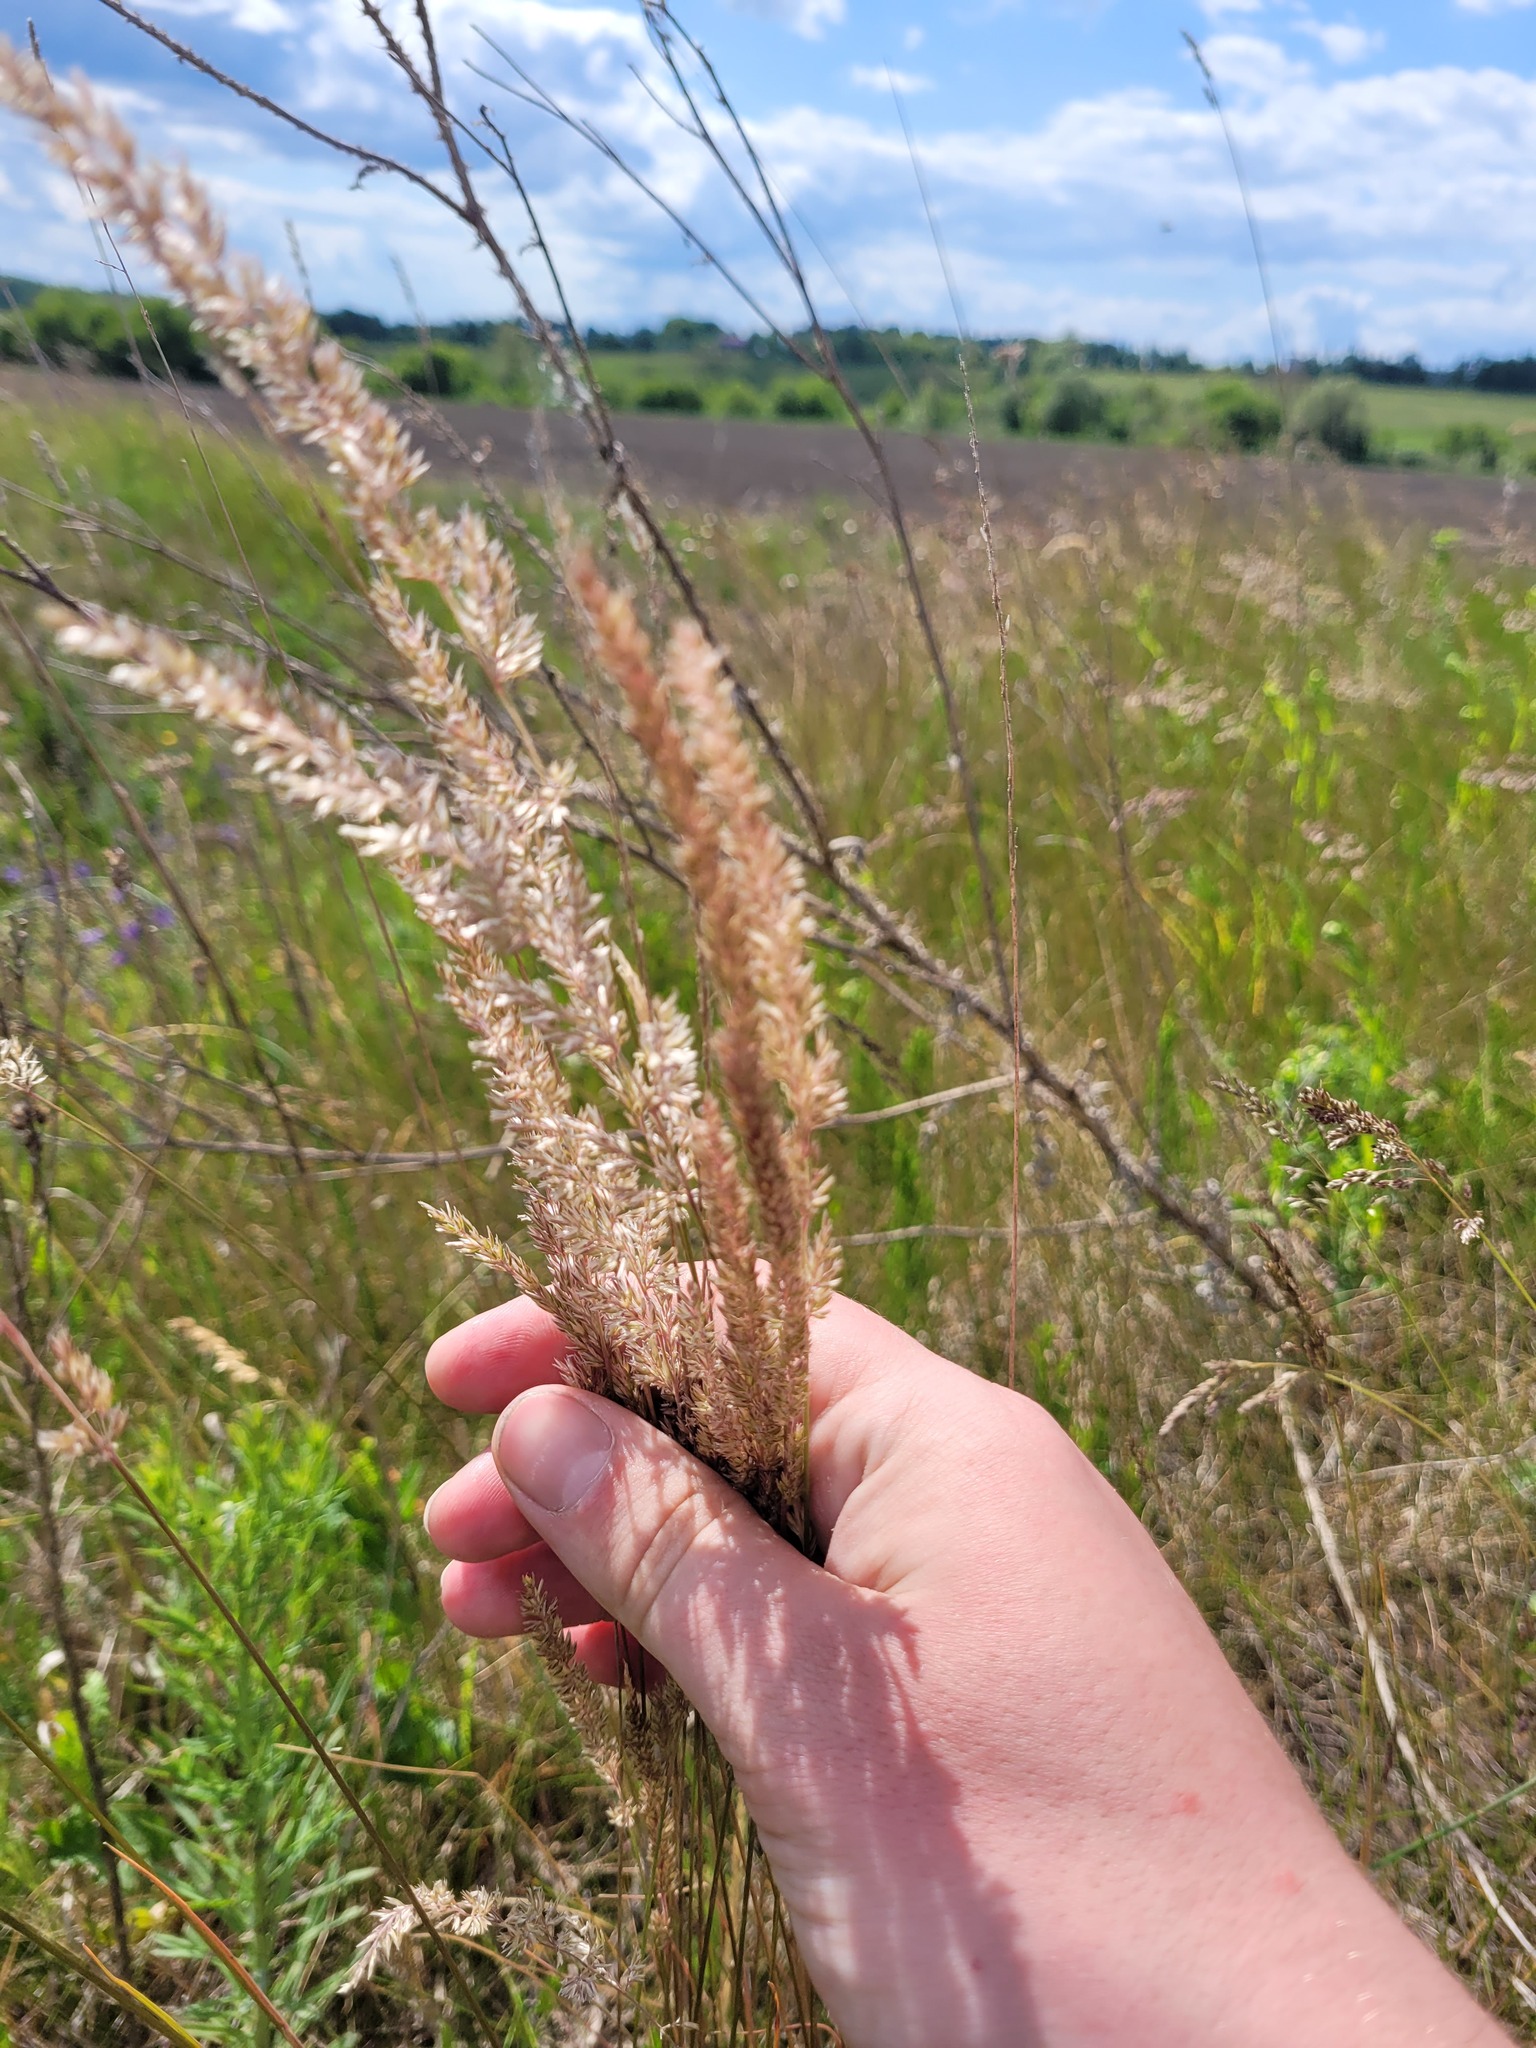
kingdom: Plantae
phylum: Tracheophyta
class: Liliopsida
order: Poales
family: Poaceae
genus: Koeleria
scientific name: Koeleria macrantha
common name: Crested hair-grass
